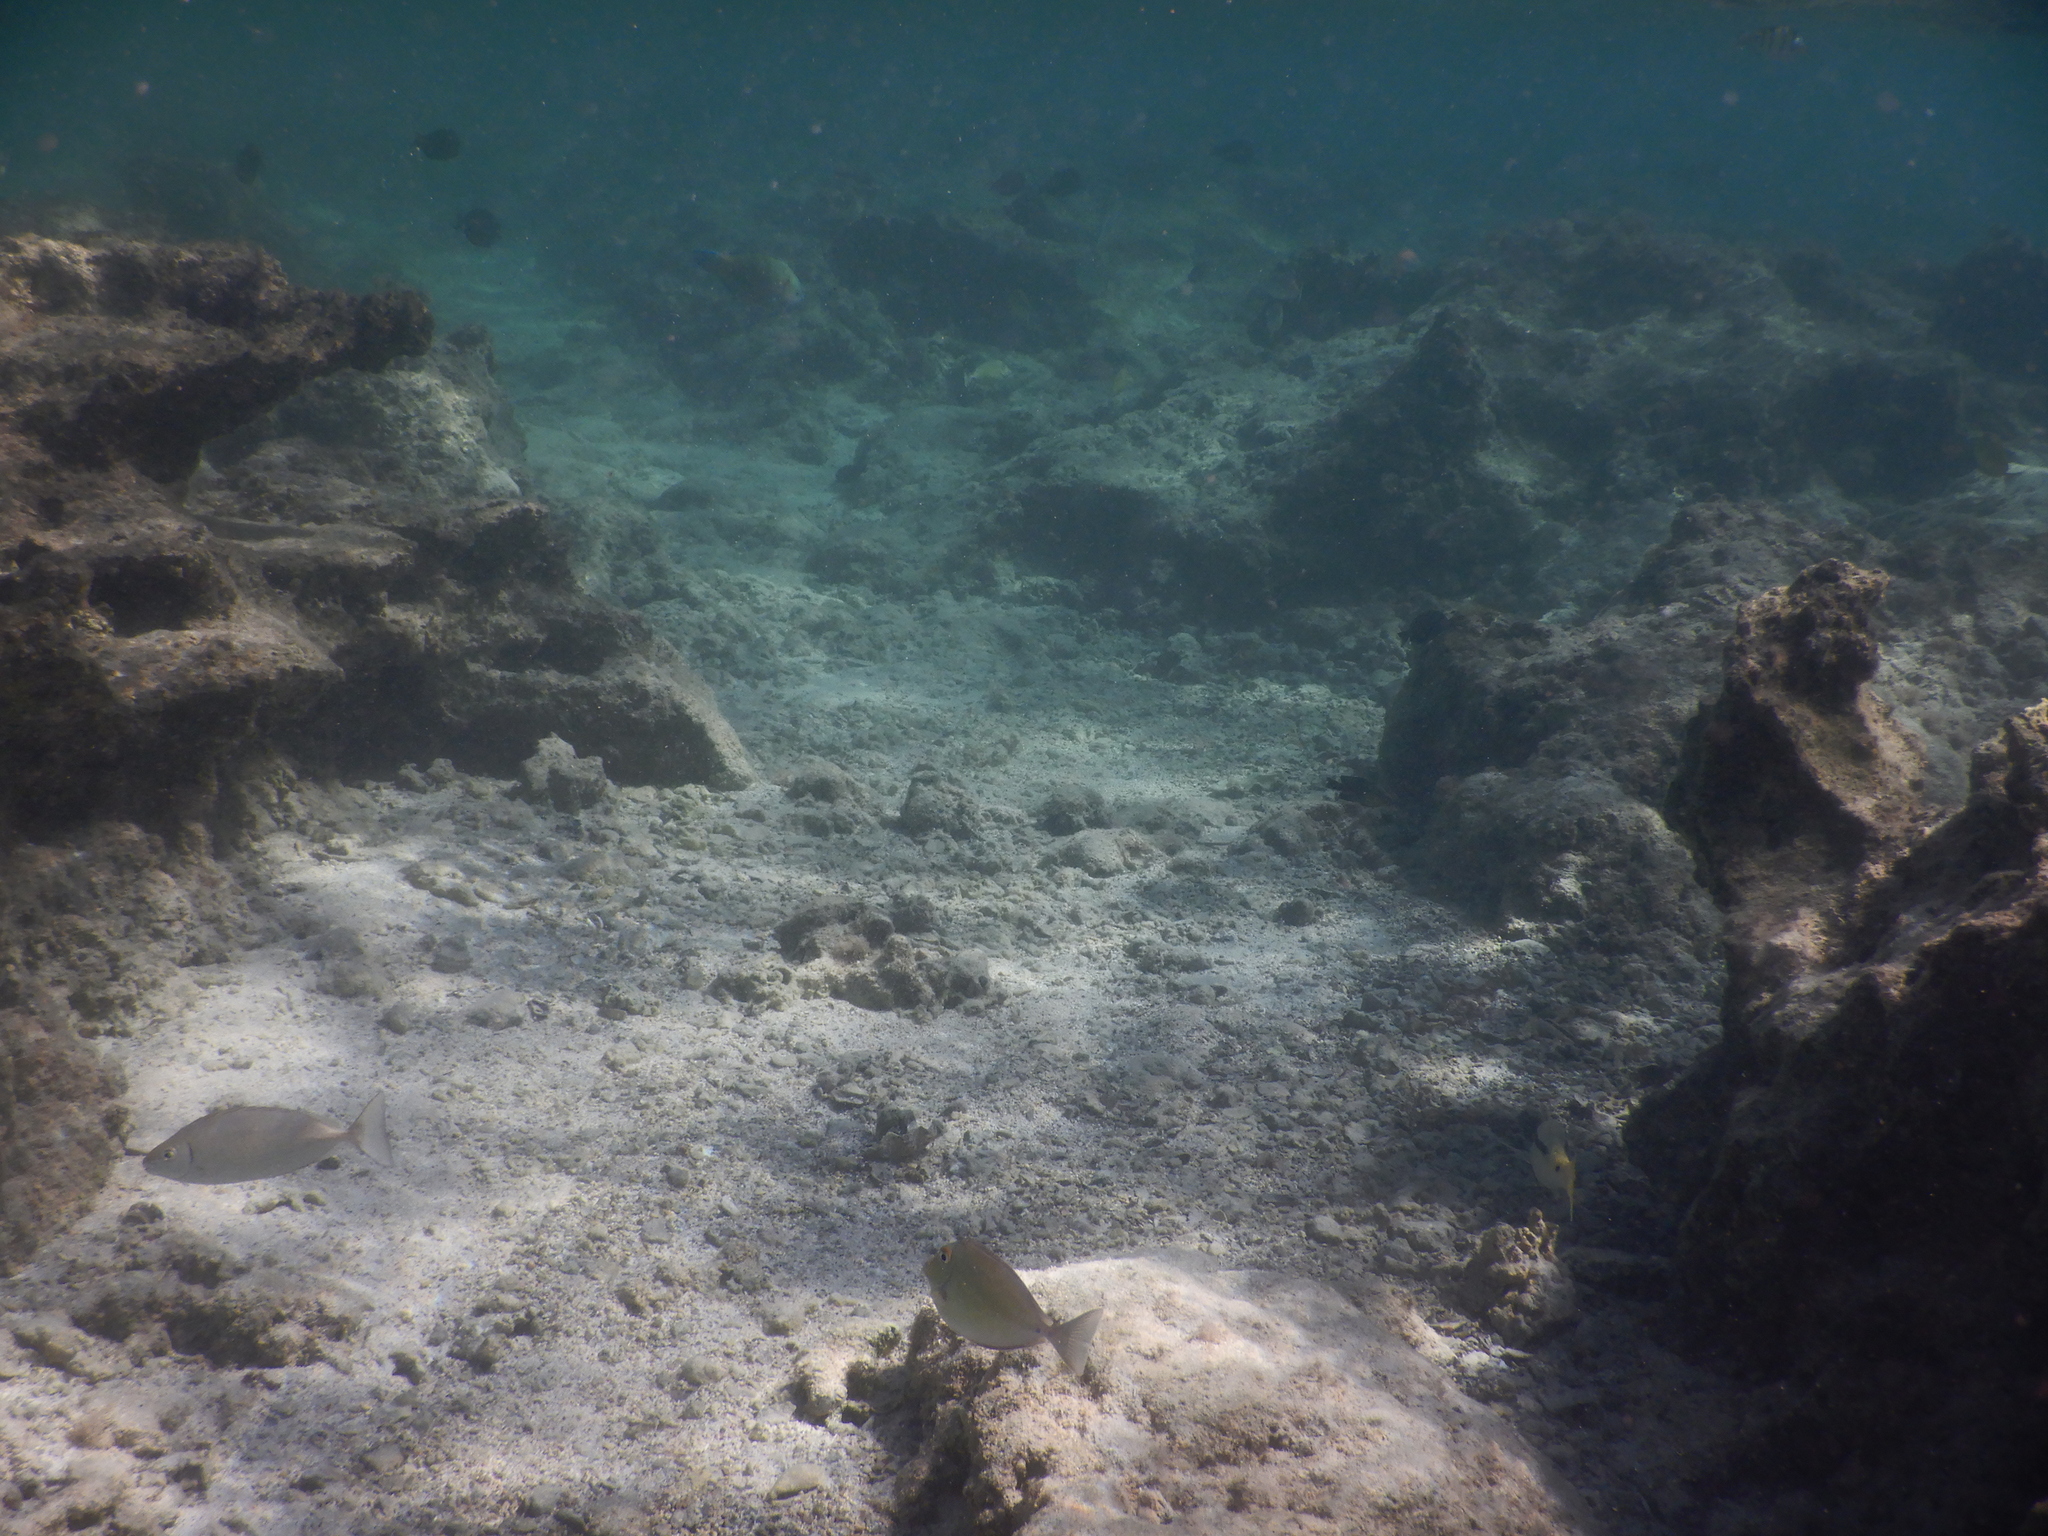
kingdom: Animalia
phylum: Chordata
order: Perciformes
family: Acanthuridae
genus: Naso
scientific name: Naso unicornis
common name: Bluespine unicornfish
